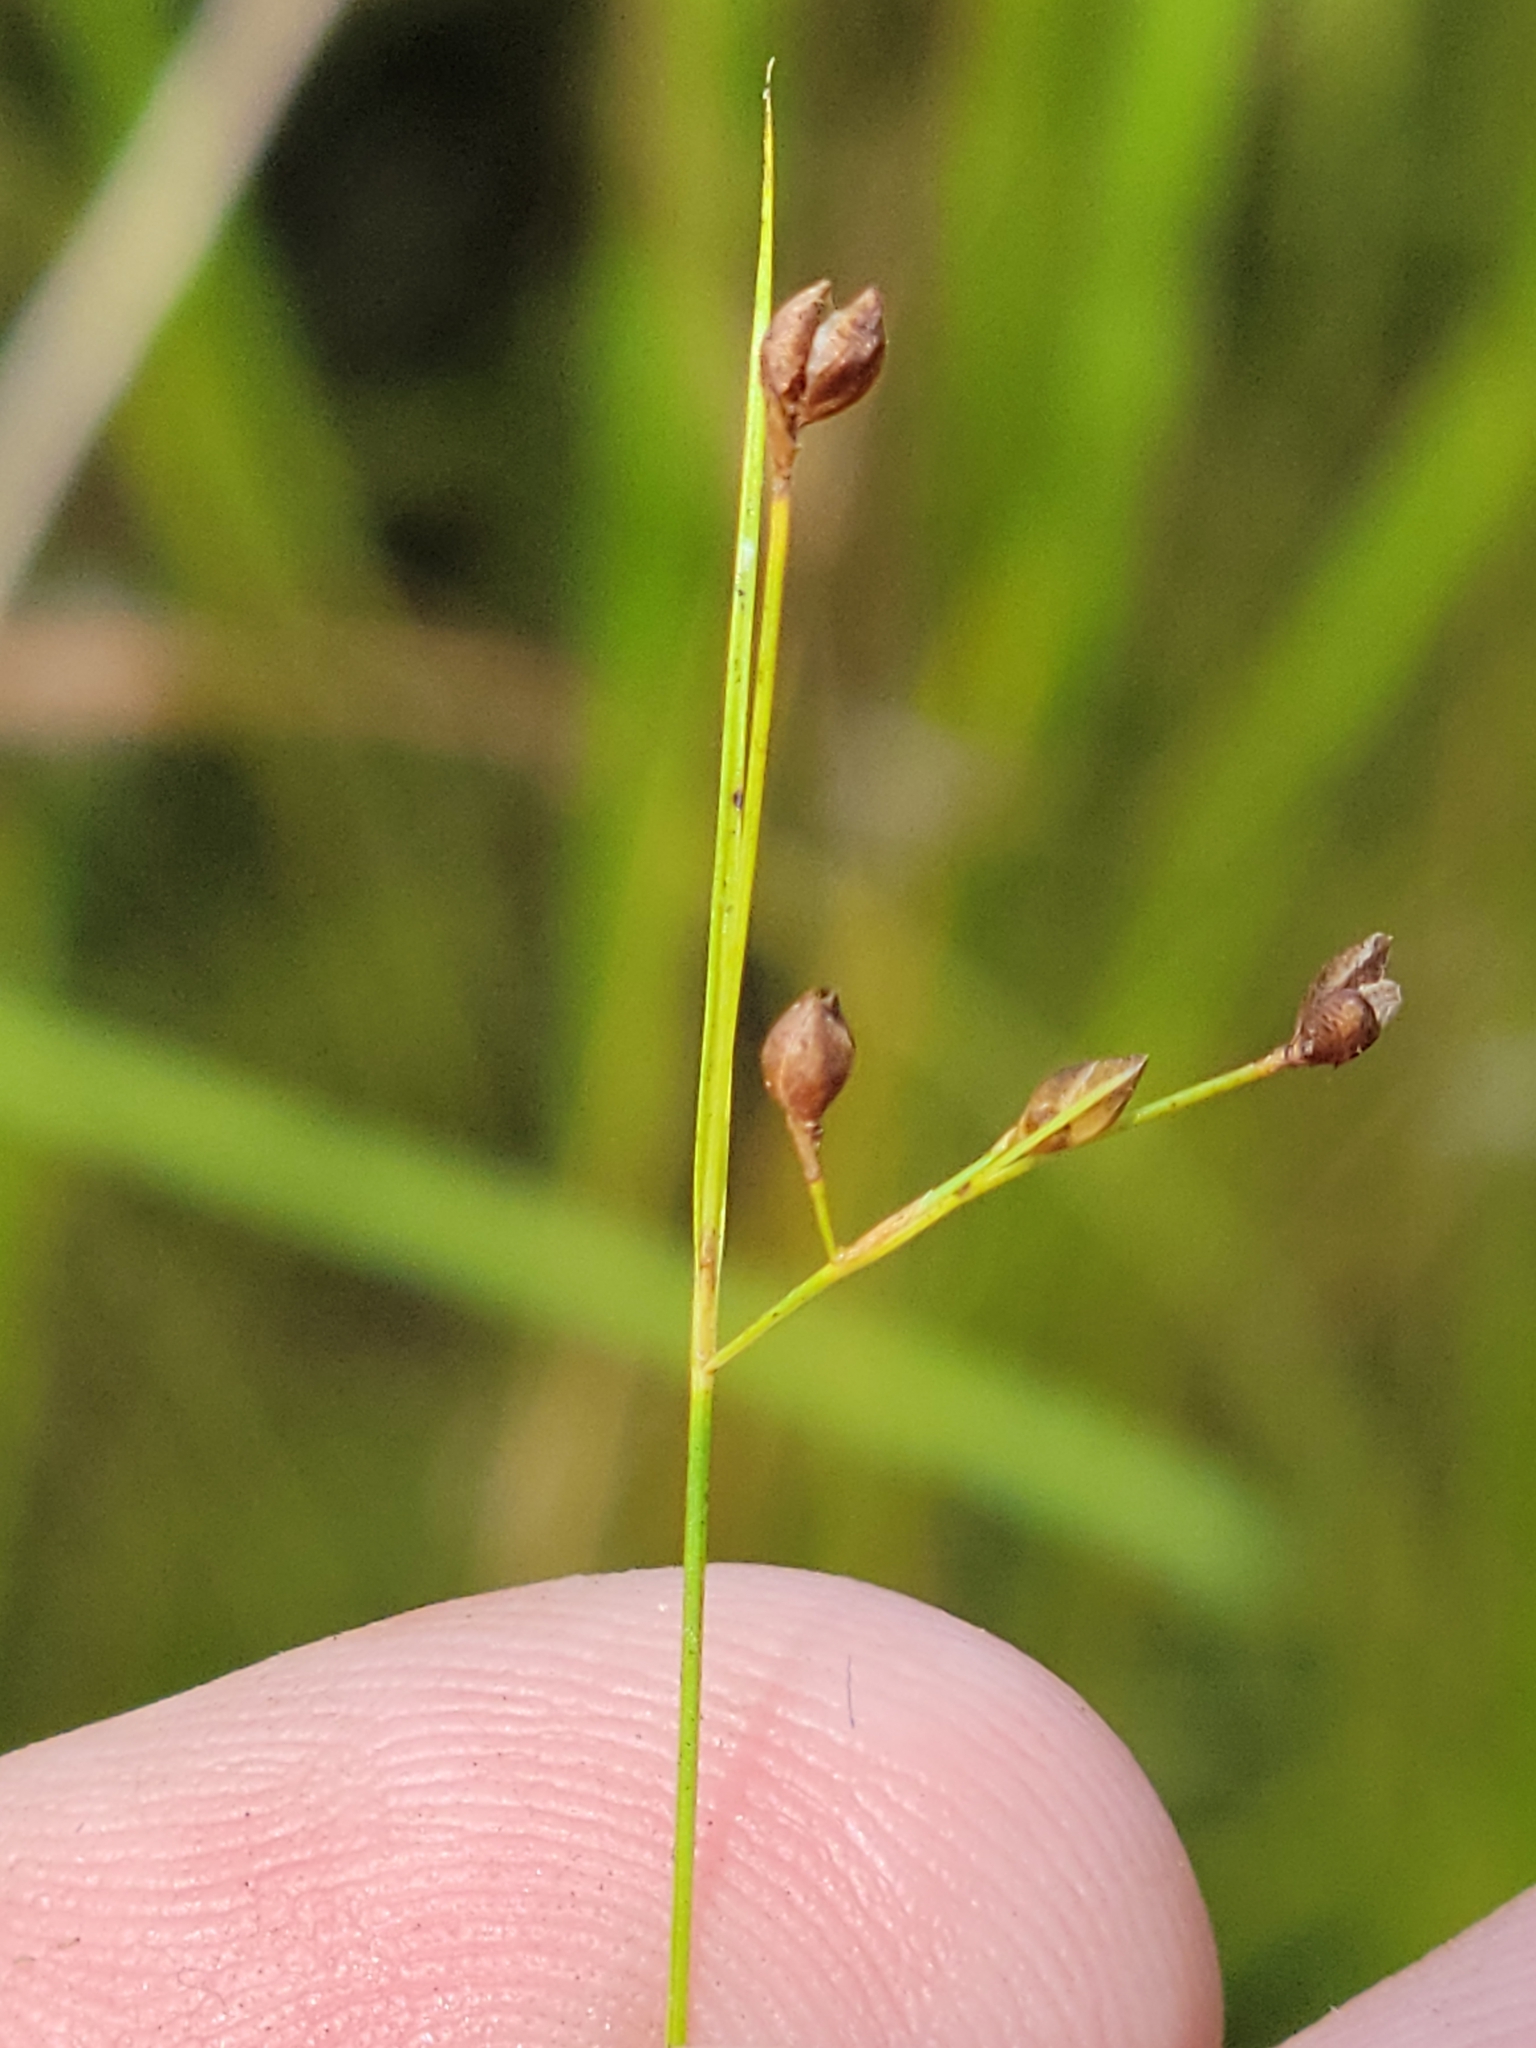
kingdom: Plantae
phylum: Tracheophyta
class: Liliopsida
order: Poales
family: Cyperaceae
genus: Rhynchospora
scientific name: Rhynchospora rariflora
